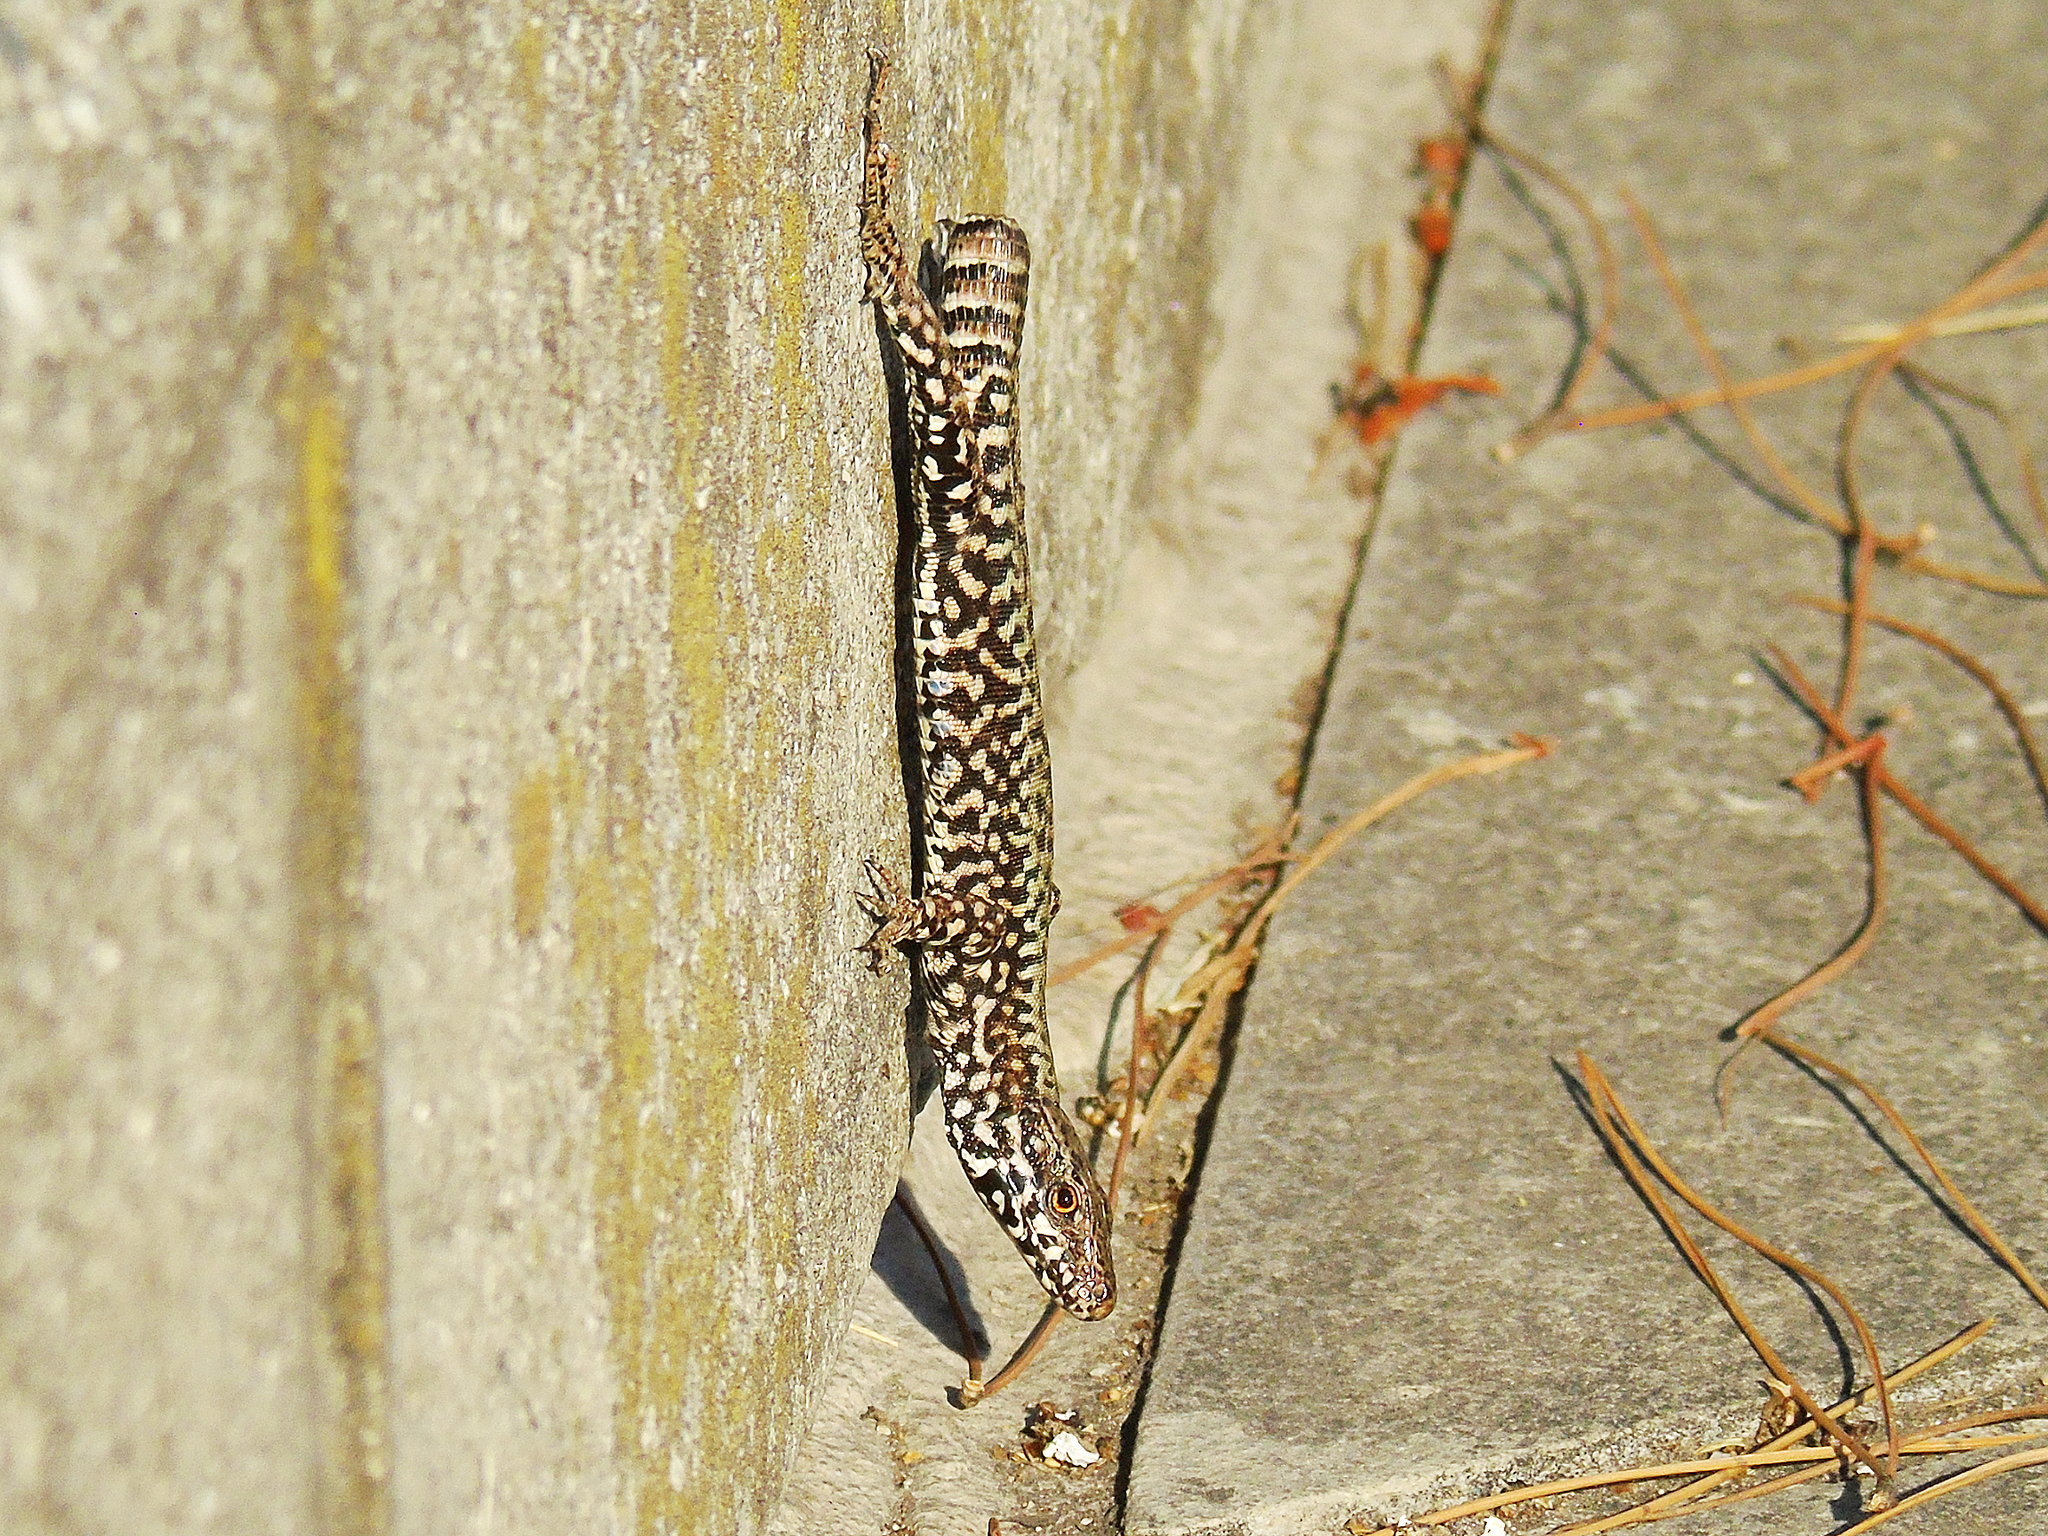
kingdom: Animalia
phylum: Chordata
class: Squamata
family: Lacertidae
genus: Podarcis
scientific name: Podarcis muralis
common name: Common wall lizard
